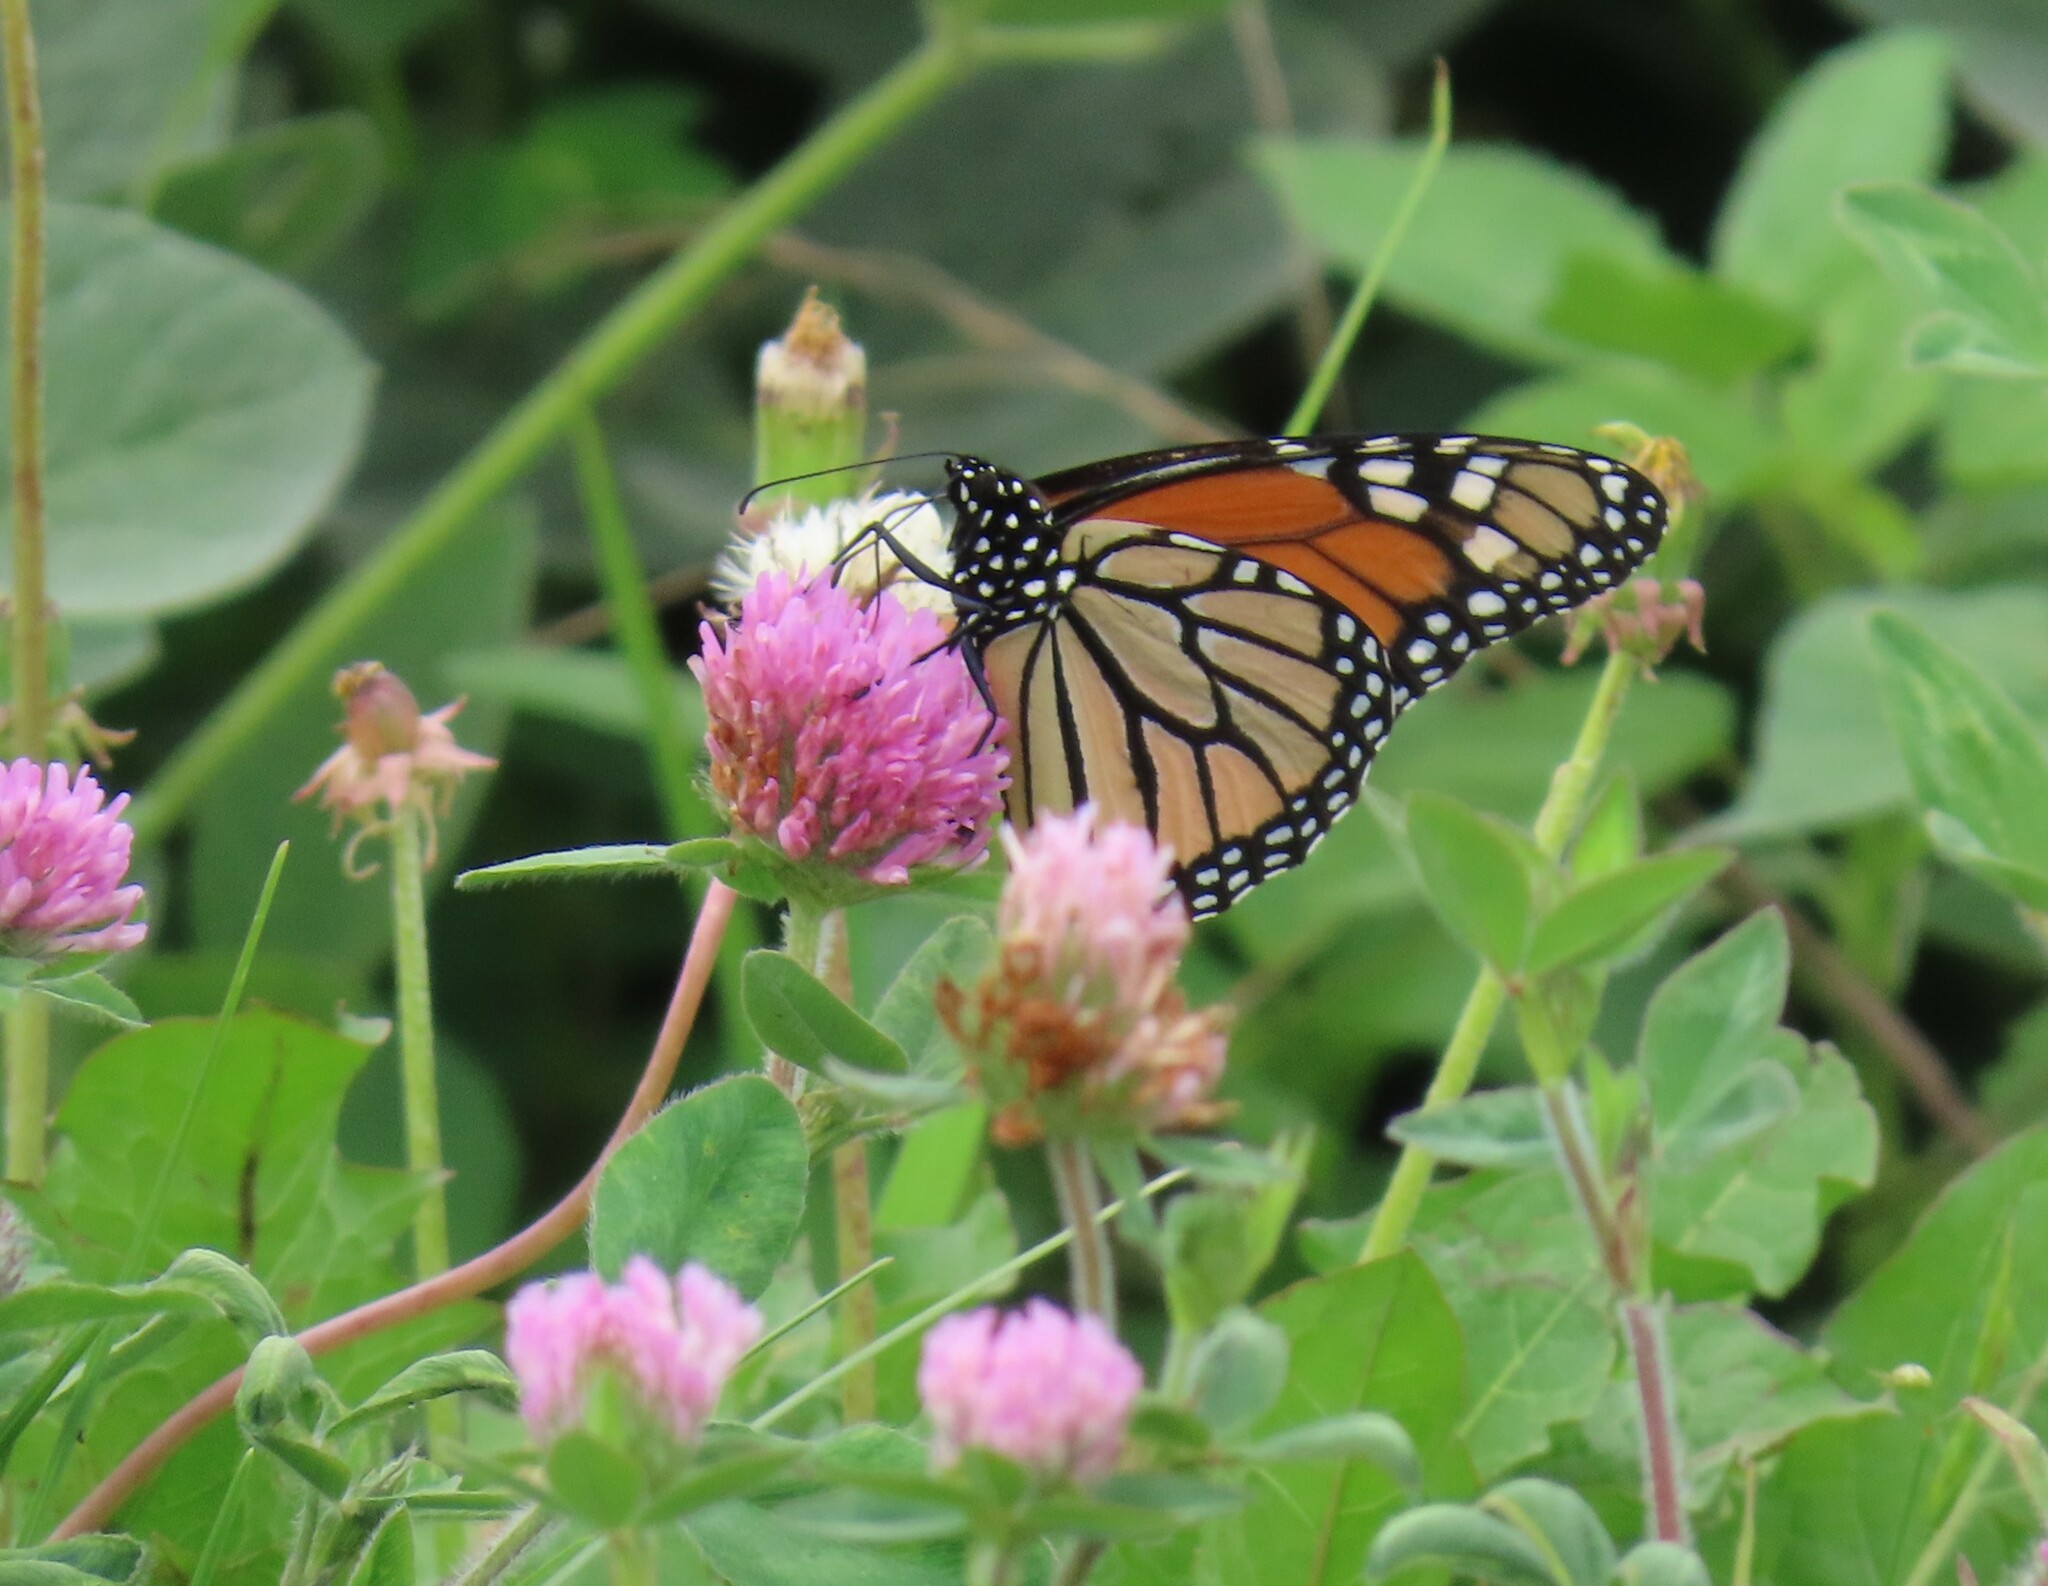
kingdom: Animalia
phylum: Arthropoda
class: Insecta
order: Lepidoptera
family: Nymphalidae
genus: Danaus
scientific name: Danaus plexippus
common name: Monarch
